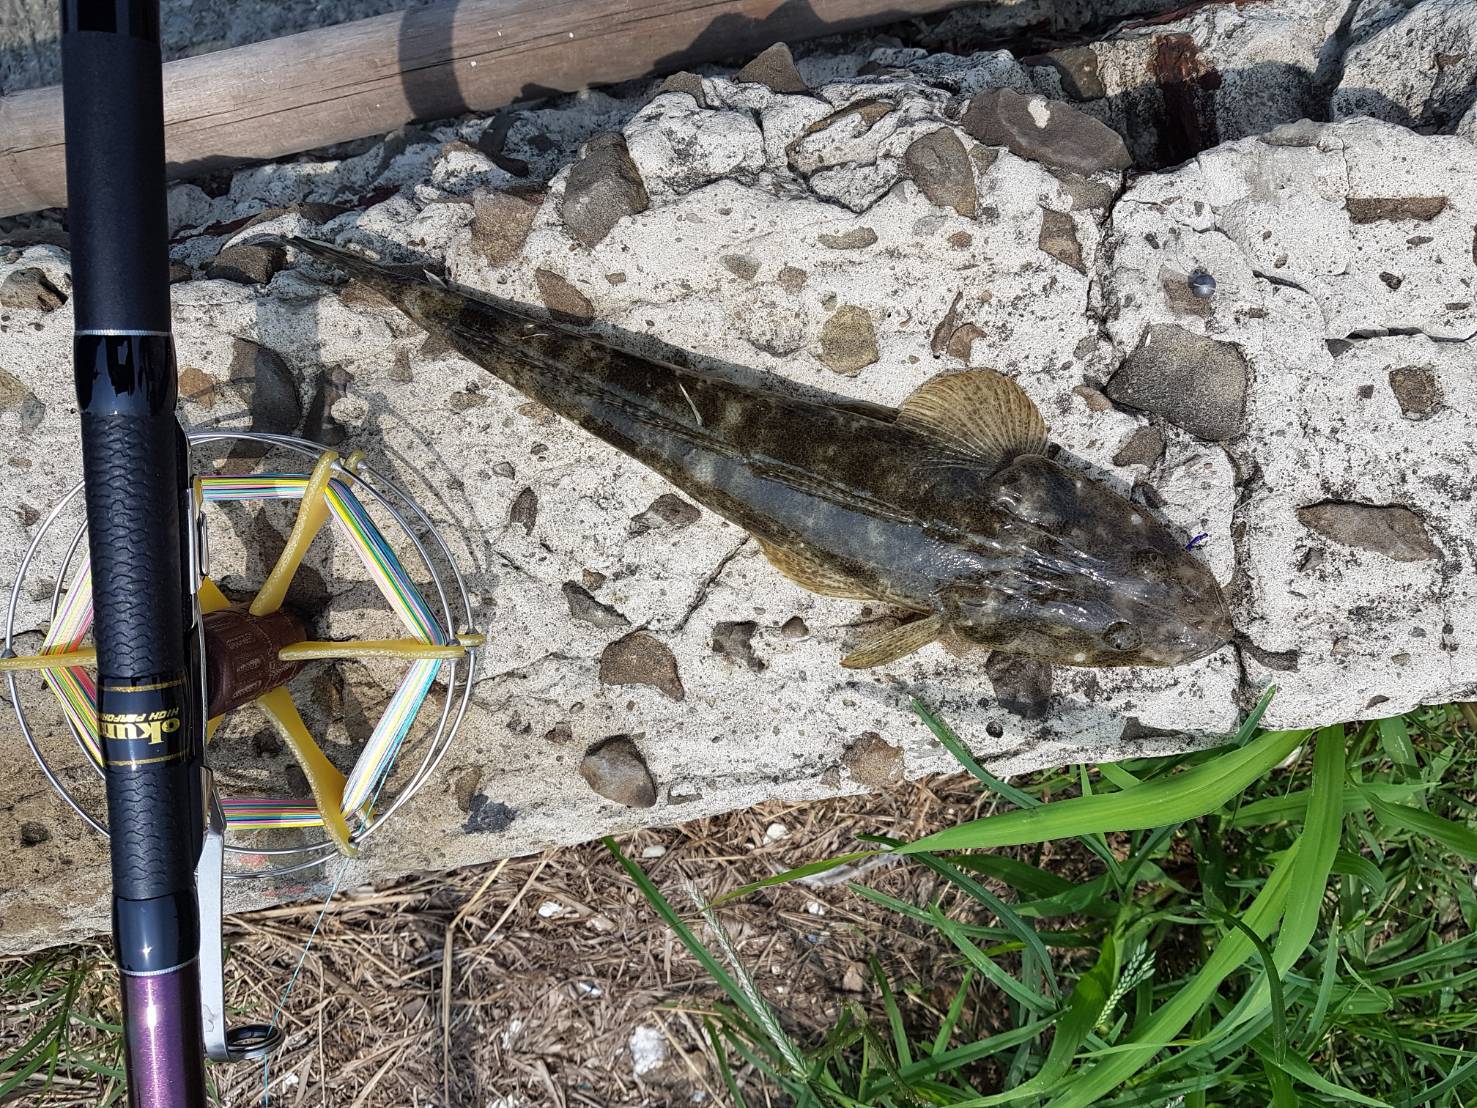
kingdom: Animalia
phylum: Chordata
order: Scorpaeniformes
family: Platycephalidae
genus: Platycephalus
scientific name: Platycephalus indicus
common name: Bartail flathead
